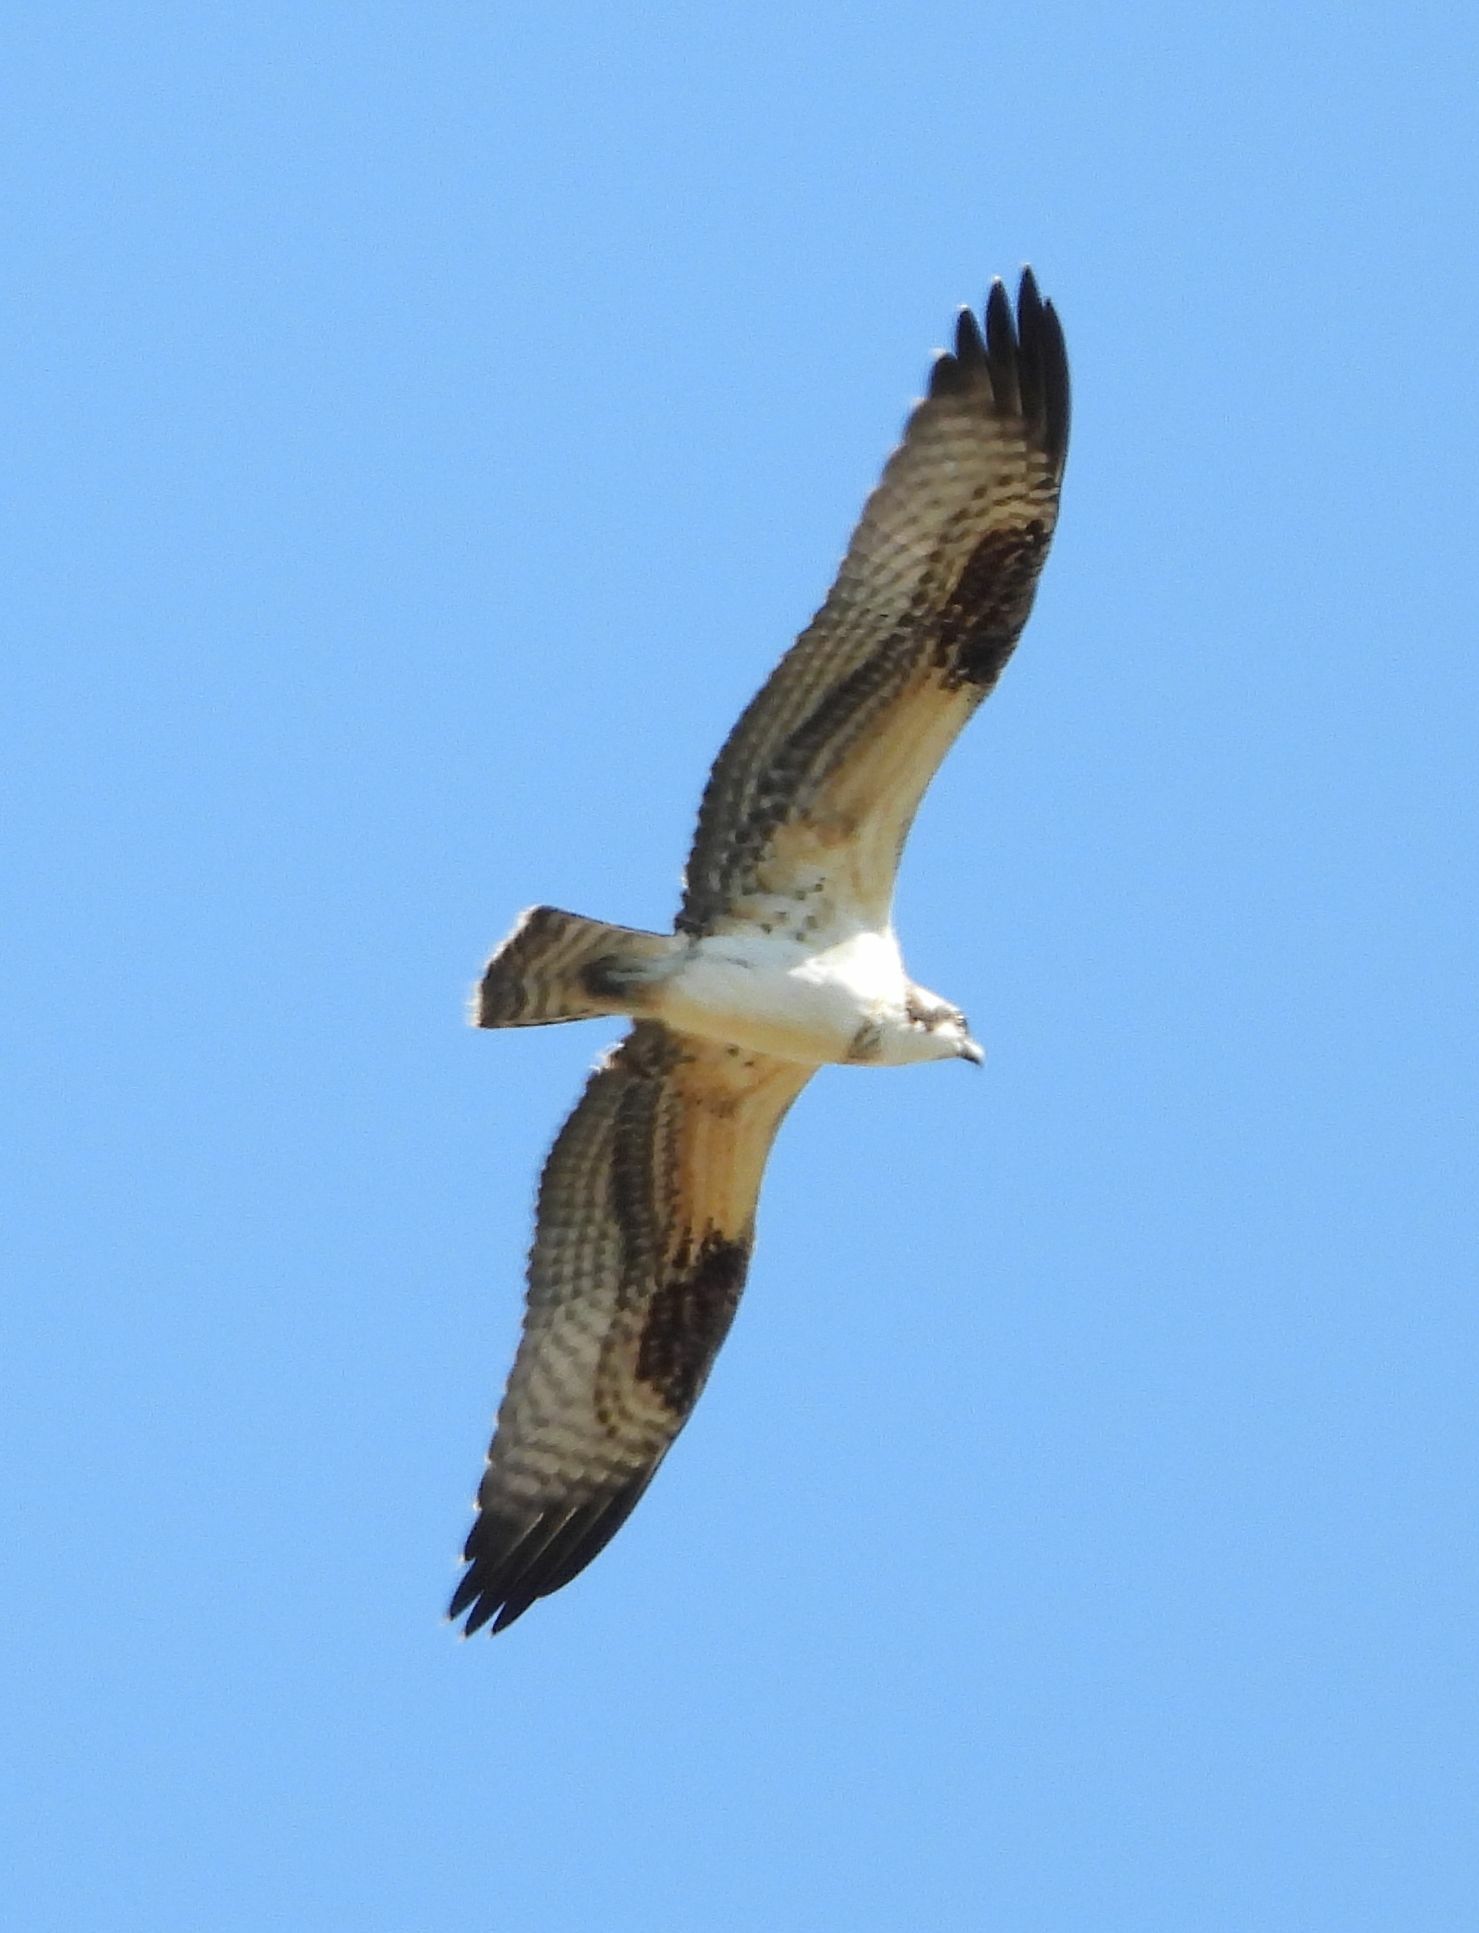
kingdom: Animalia
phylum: Chordata
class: Aves
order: Accipitriformes
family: Pandionidae
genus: Pandion
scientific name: Pandion haliaetus
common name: Osprey
